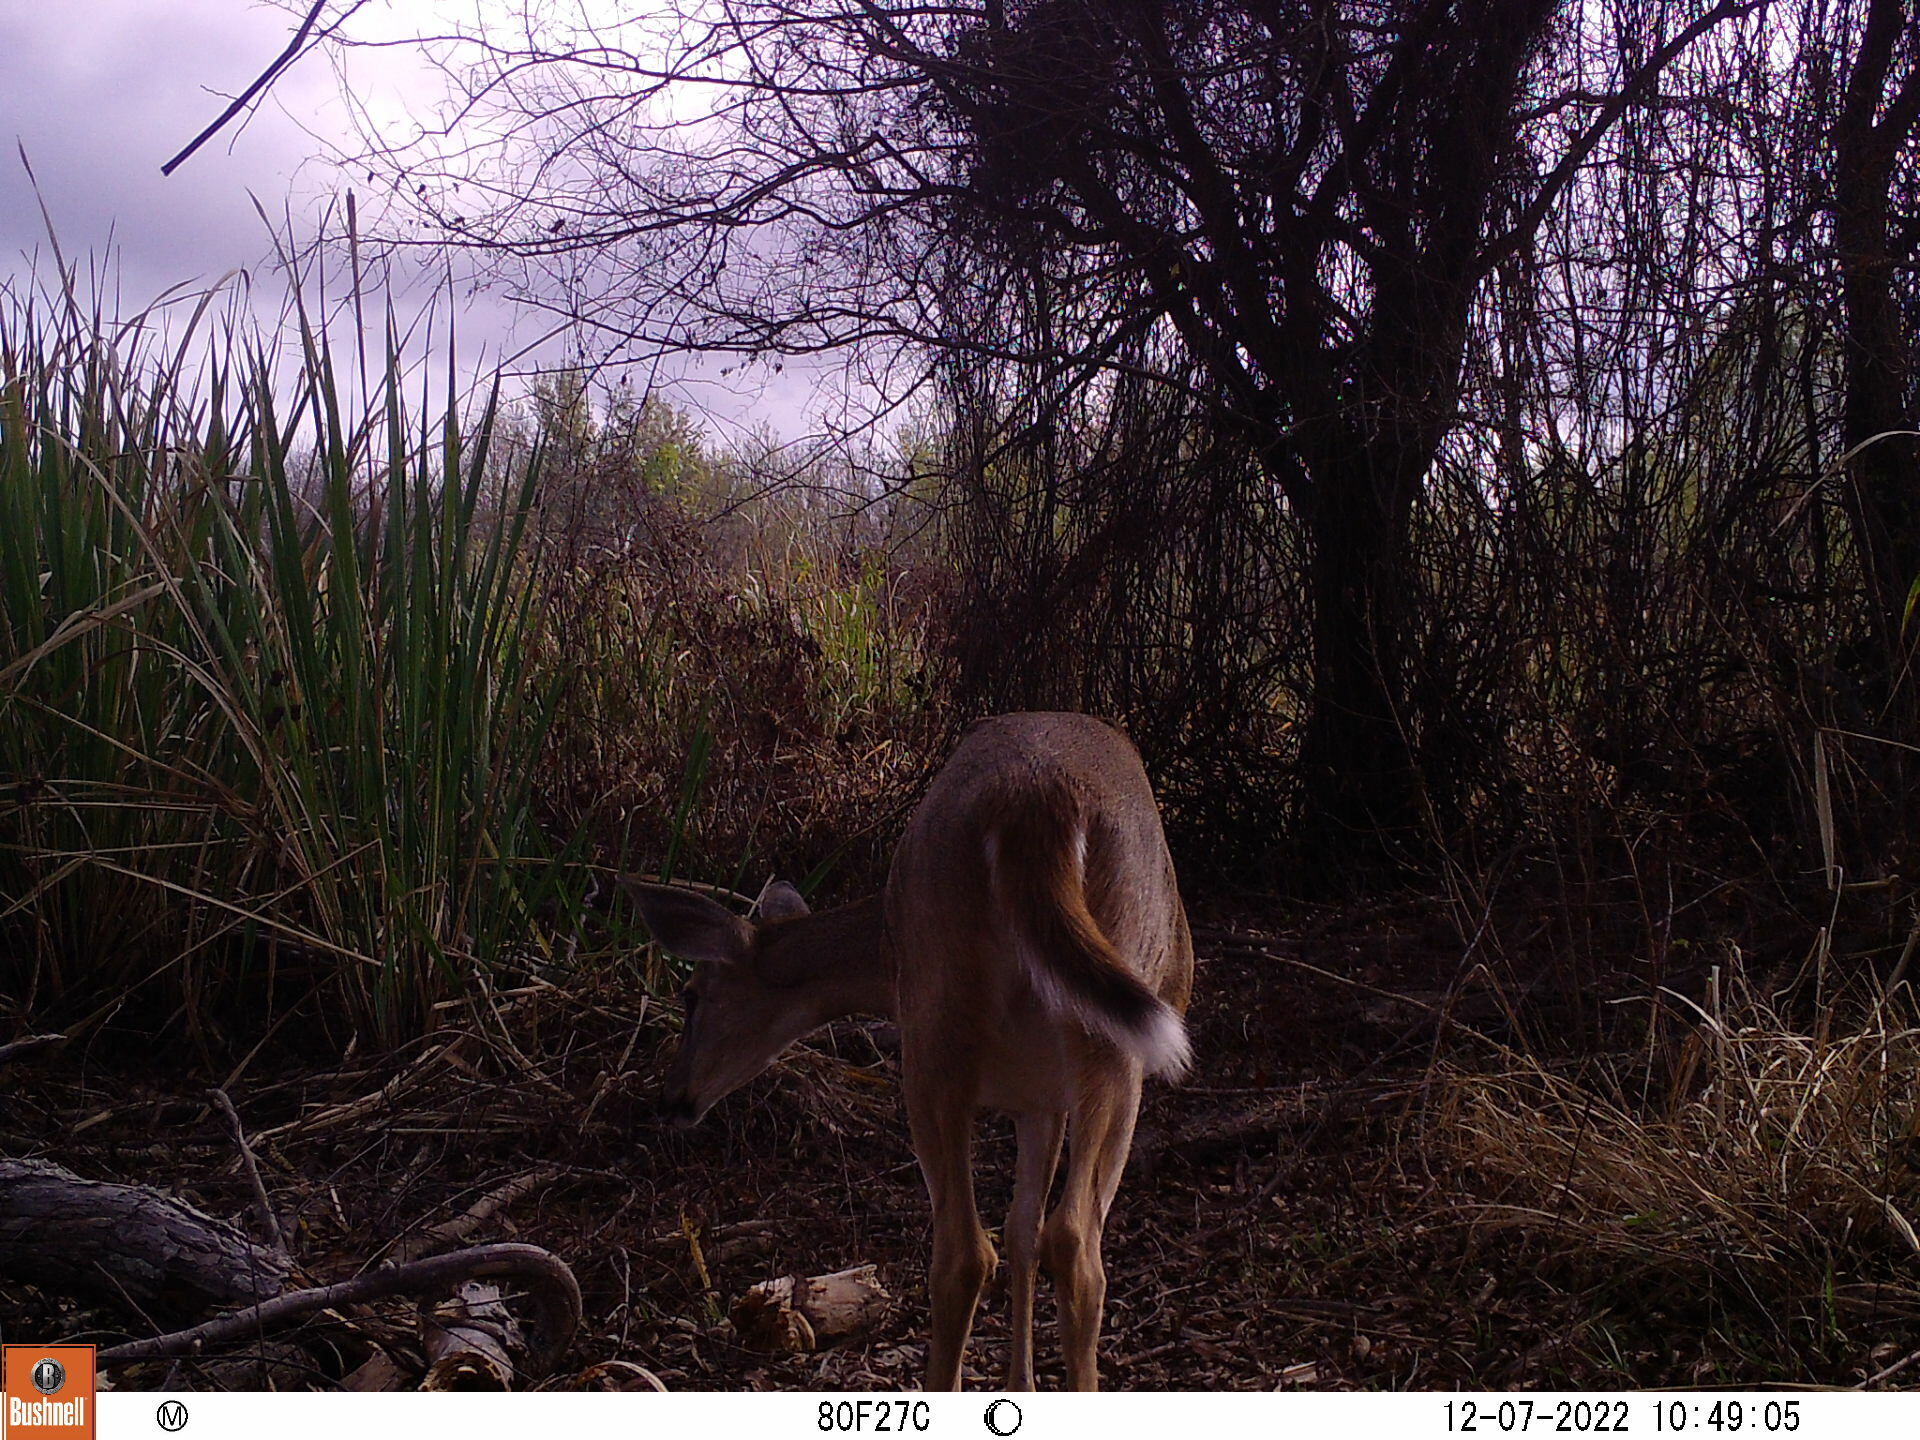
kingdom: Animalia
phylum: Chordata
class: Mammalia
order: Artiodactyla
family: Cervidae
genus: Odocoileus
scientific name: Odocoileus virginianus
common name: White-tailed deer
